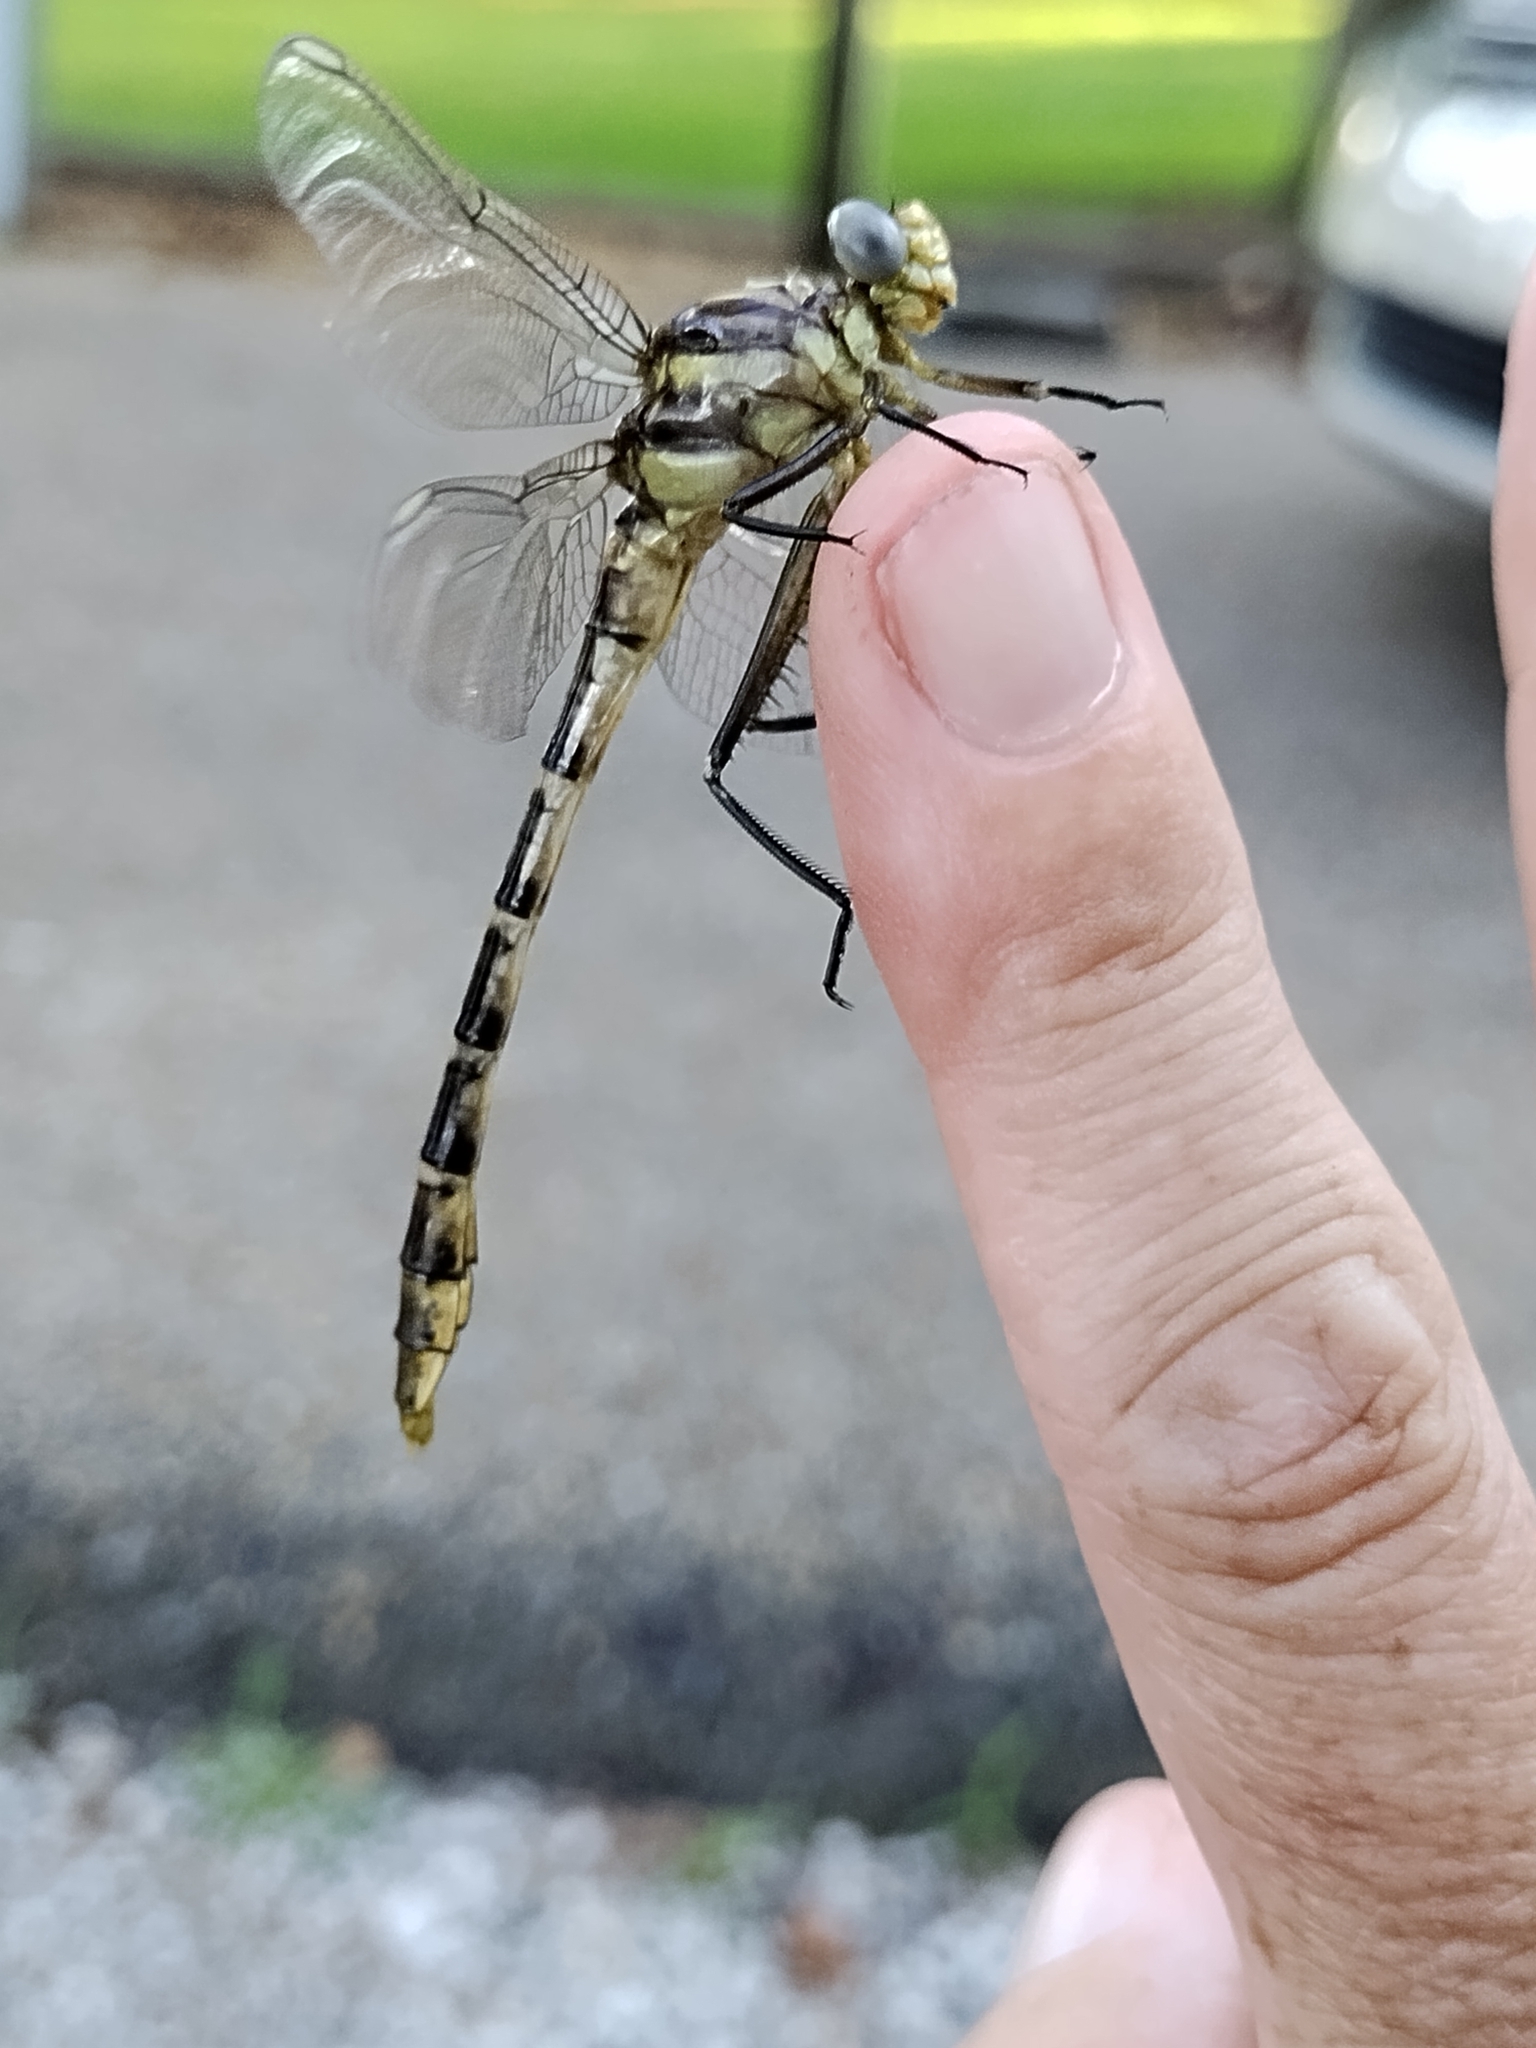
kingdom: Animalia
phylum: Arthropoda
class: Insecta
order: Odonata
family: Gomphidae
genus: Dromogomphus
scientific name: Dromogomphus spoliatus
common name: Flag-tailed spinyleg
